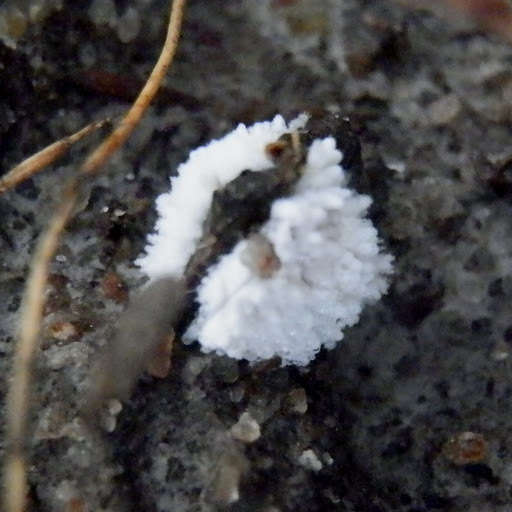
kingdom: Protozoa
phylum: Mycetozoa
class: Protosteliomycetes
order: Ceratiomyxales
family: Ceratiomyxaceae
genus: Ceratiomyxa
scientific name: Ceratiomyxa fruticulosa
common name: Honeycomb coral slime mold
